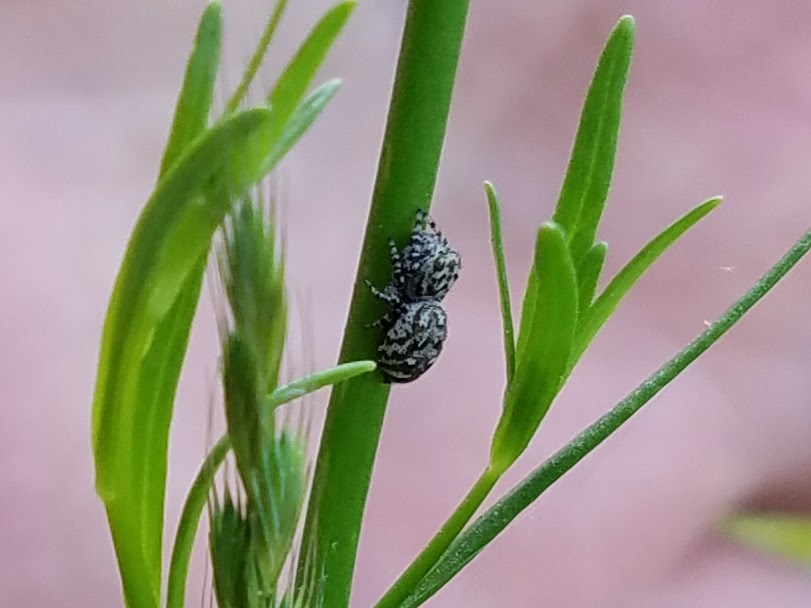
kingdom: Animalia
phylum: Arthropoda
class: Arachnida
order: Araneae
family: Salticidae
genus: Pelegrina
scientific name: Pelegrina galathea
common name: Jumping spiders
